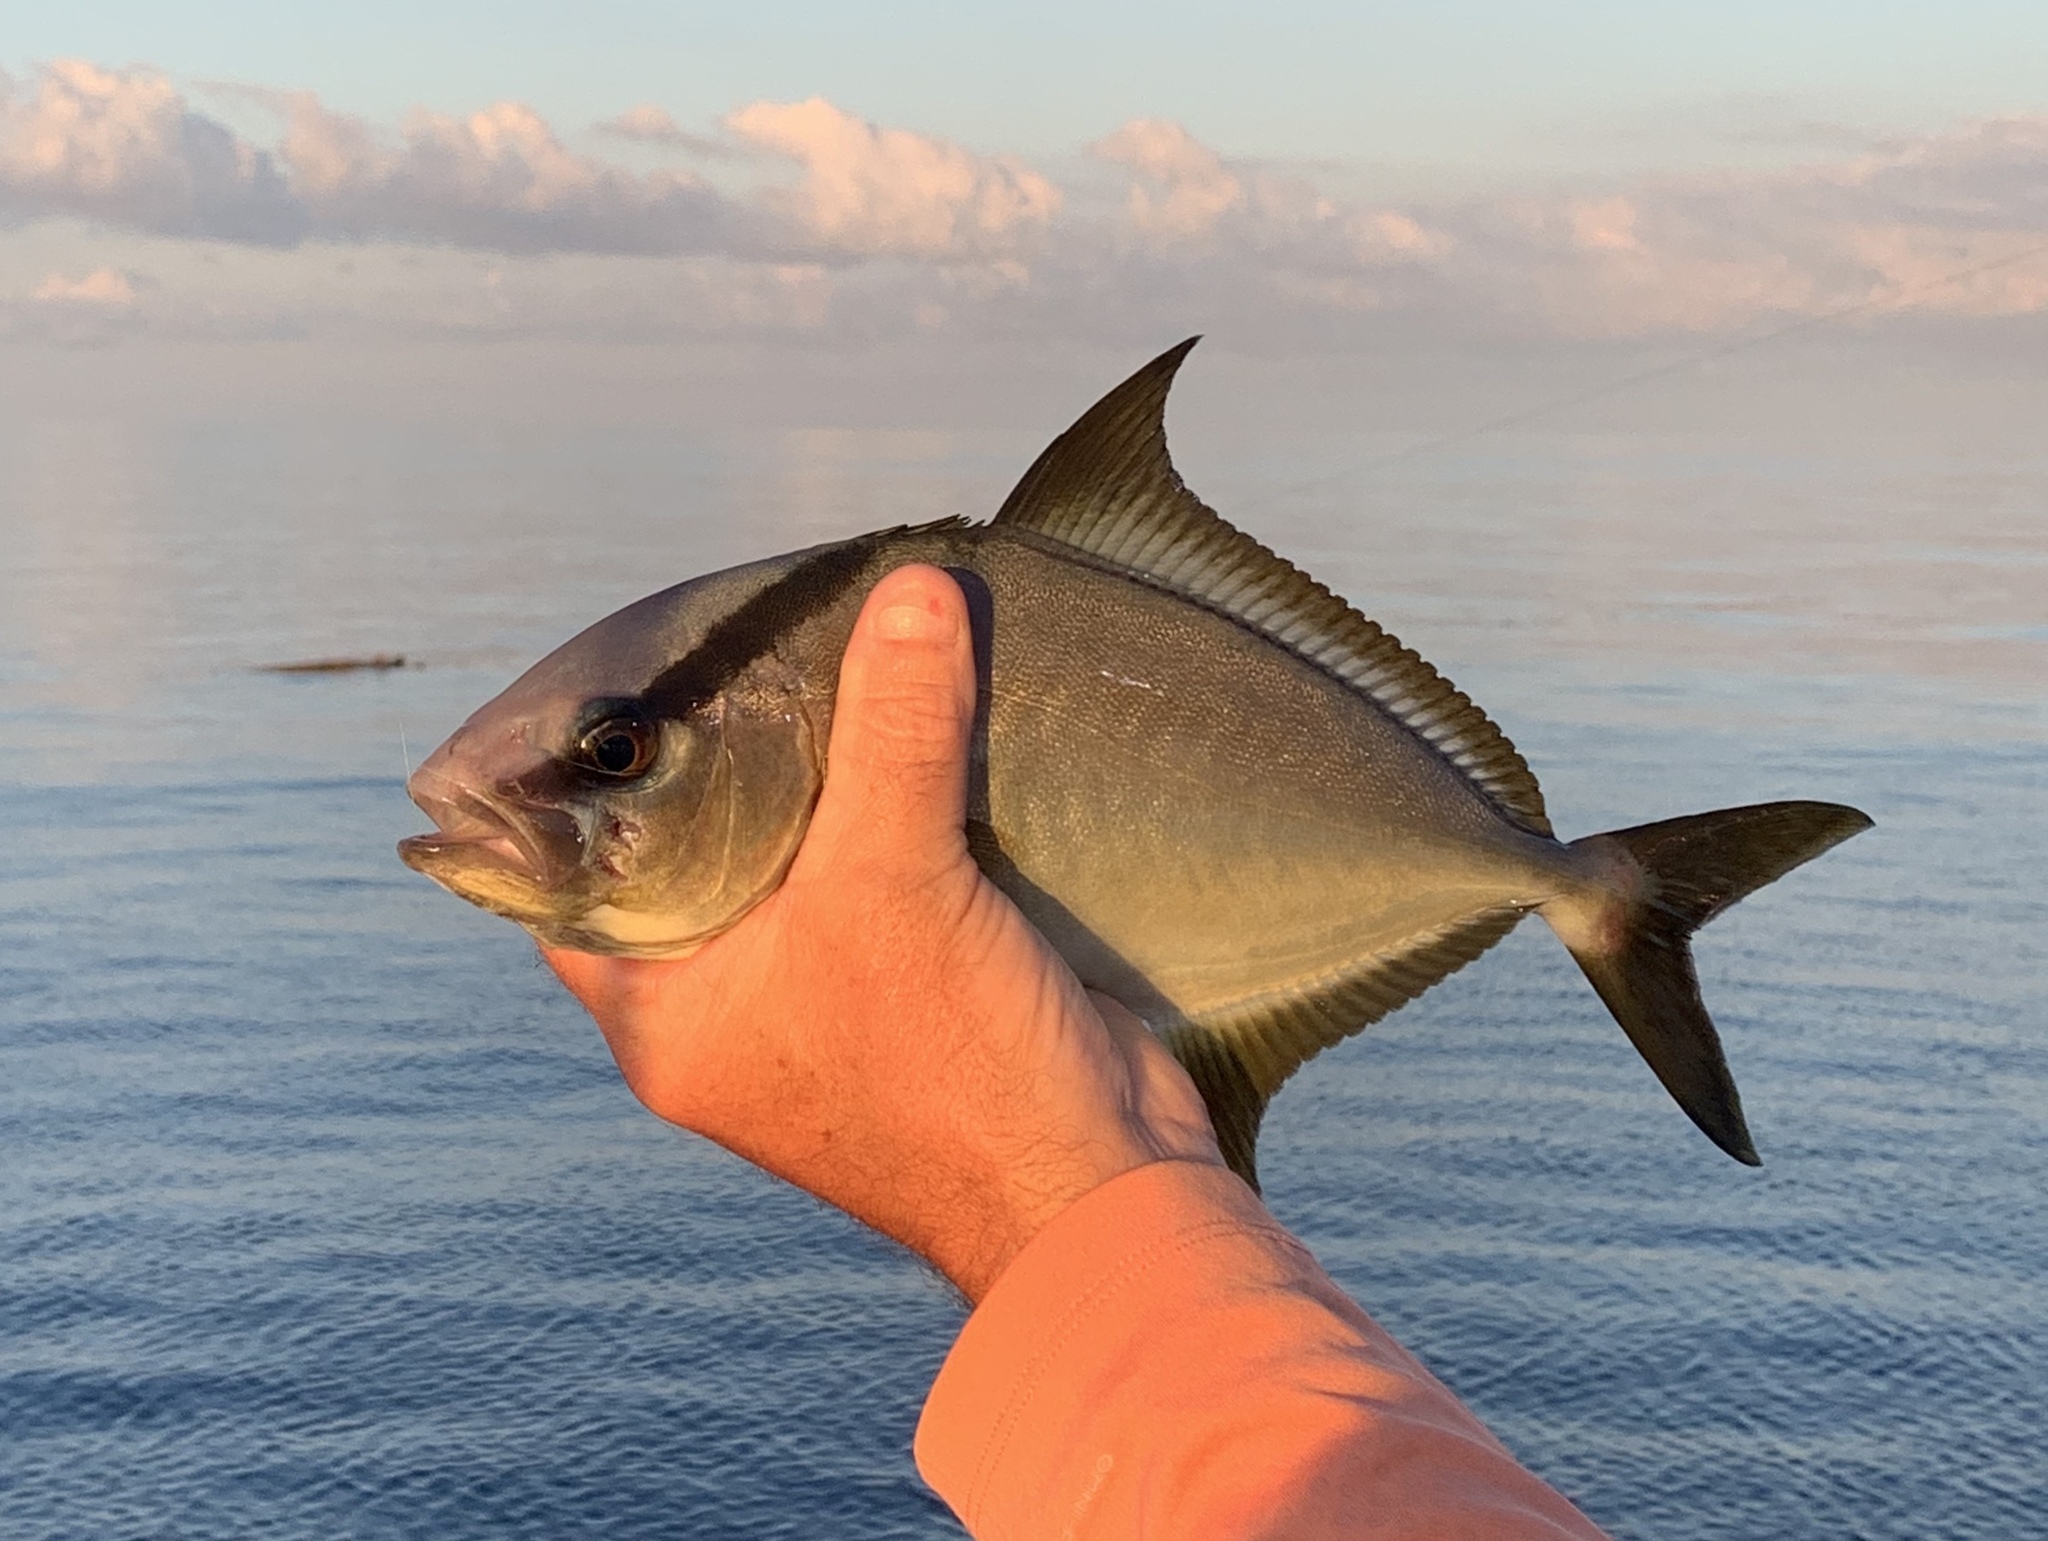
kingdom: Animalia
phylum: Chordata
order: Perciformes
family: Carangidae
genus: Seriola
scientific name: Seriola rivoliana
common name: Almaco jack
